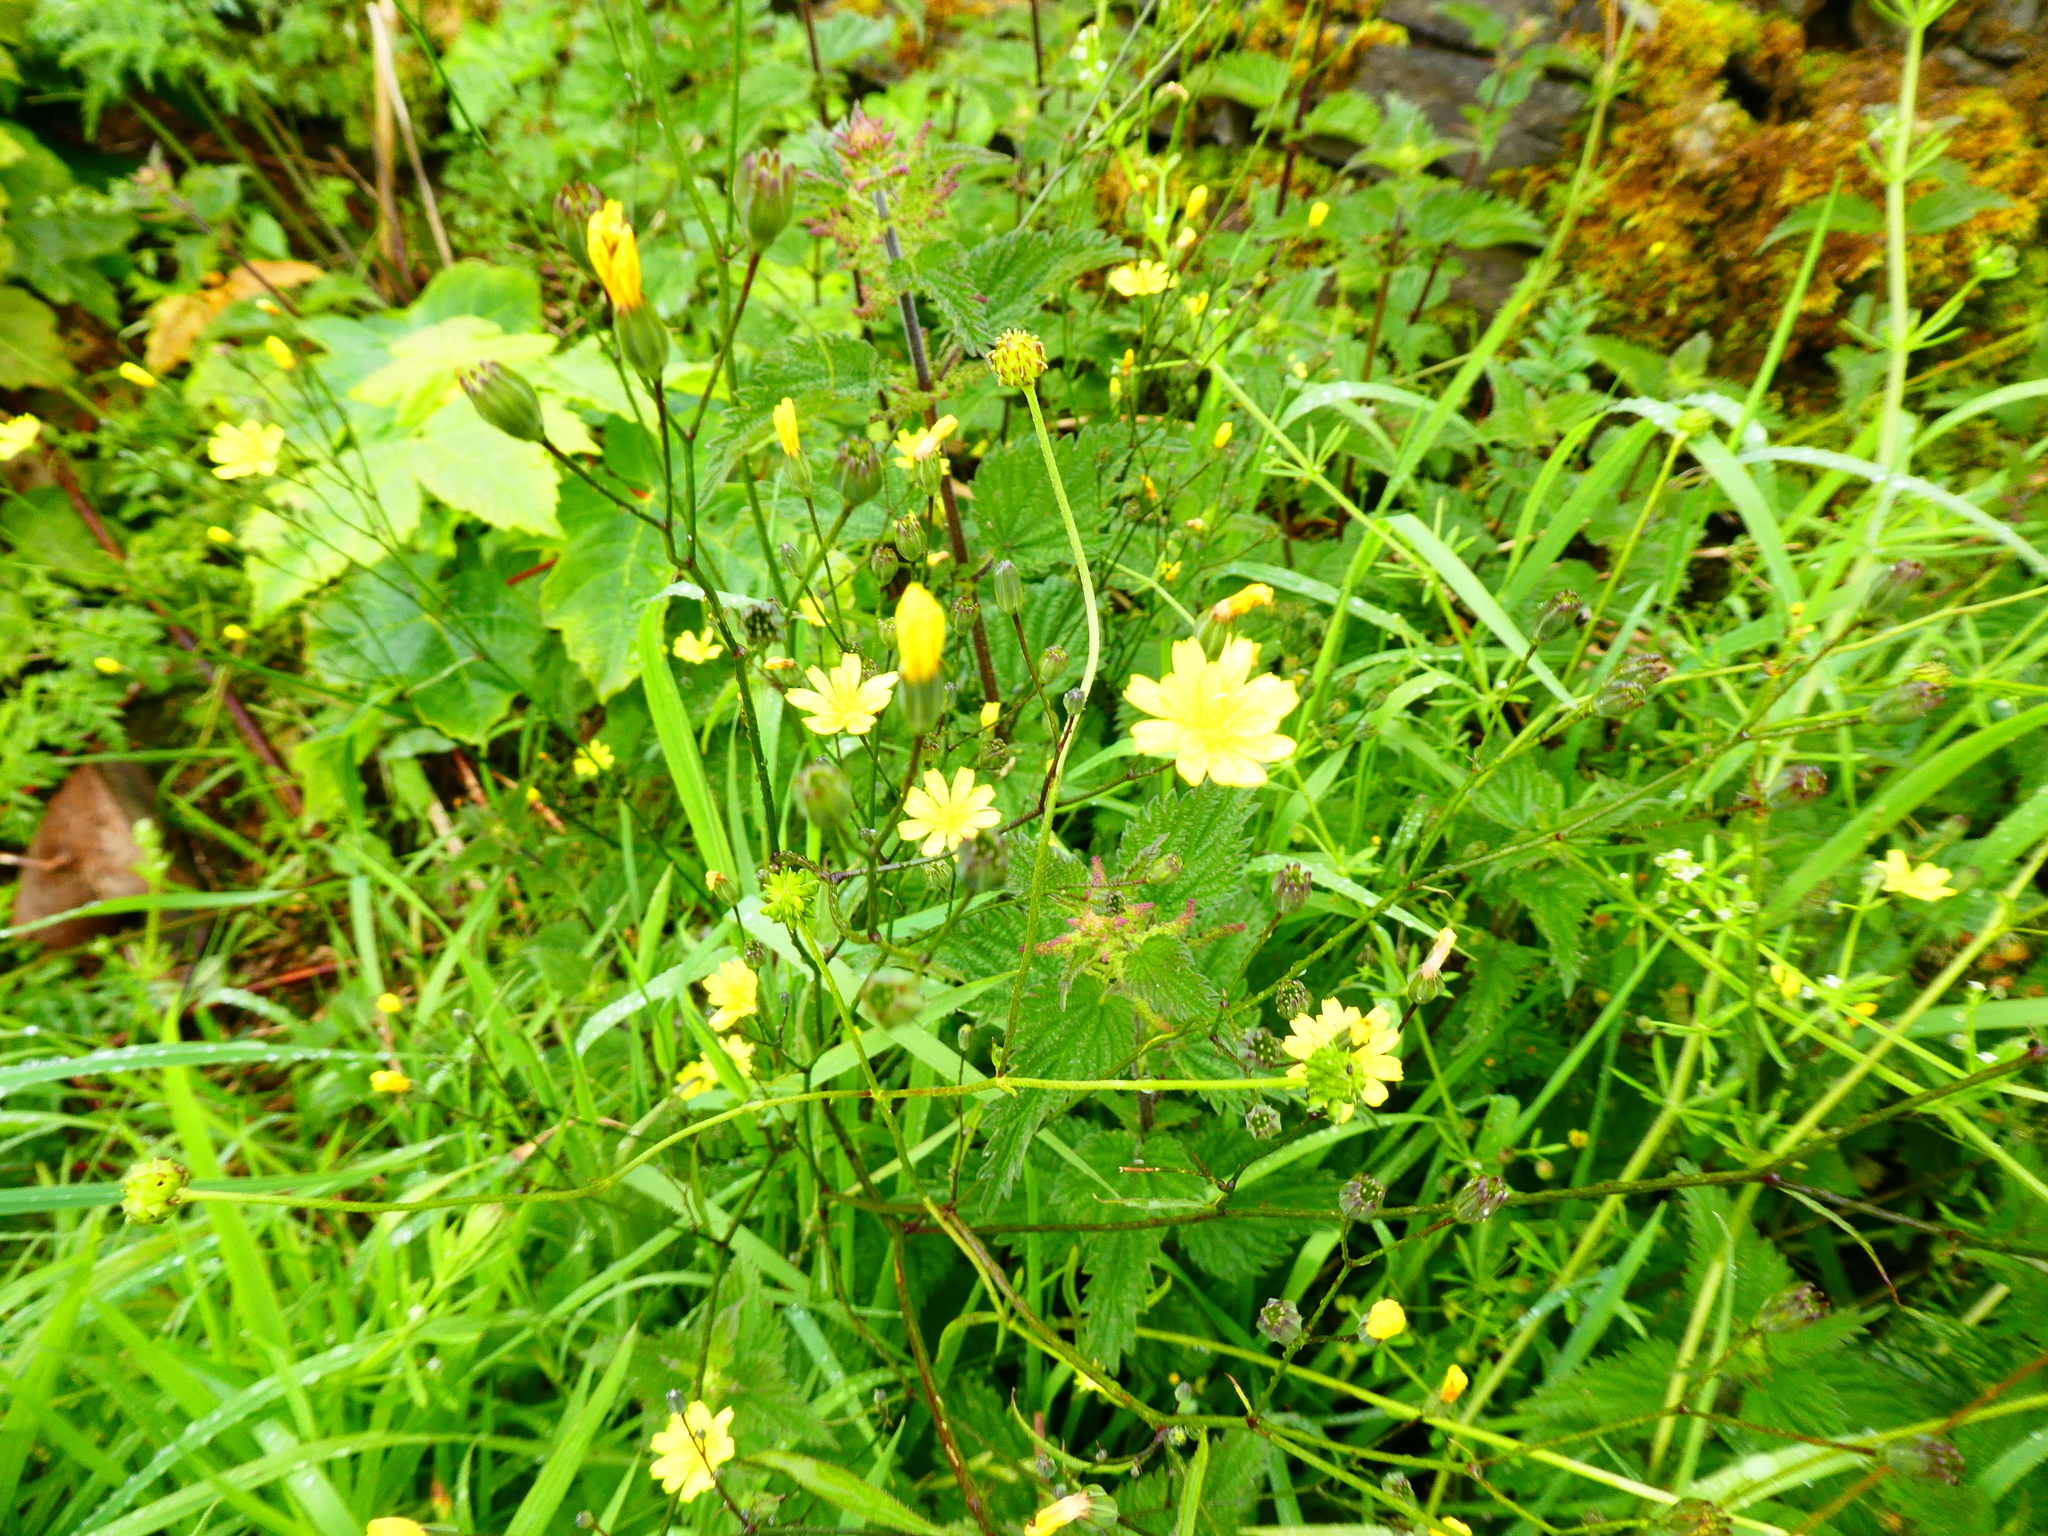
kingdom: Plantae
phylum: Tracheophyta
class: Magnoliopsida
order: Asterales
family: Asteraceae
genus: Lapsana
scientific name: Lapsana communis
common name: Nipplewort
